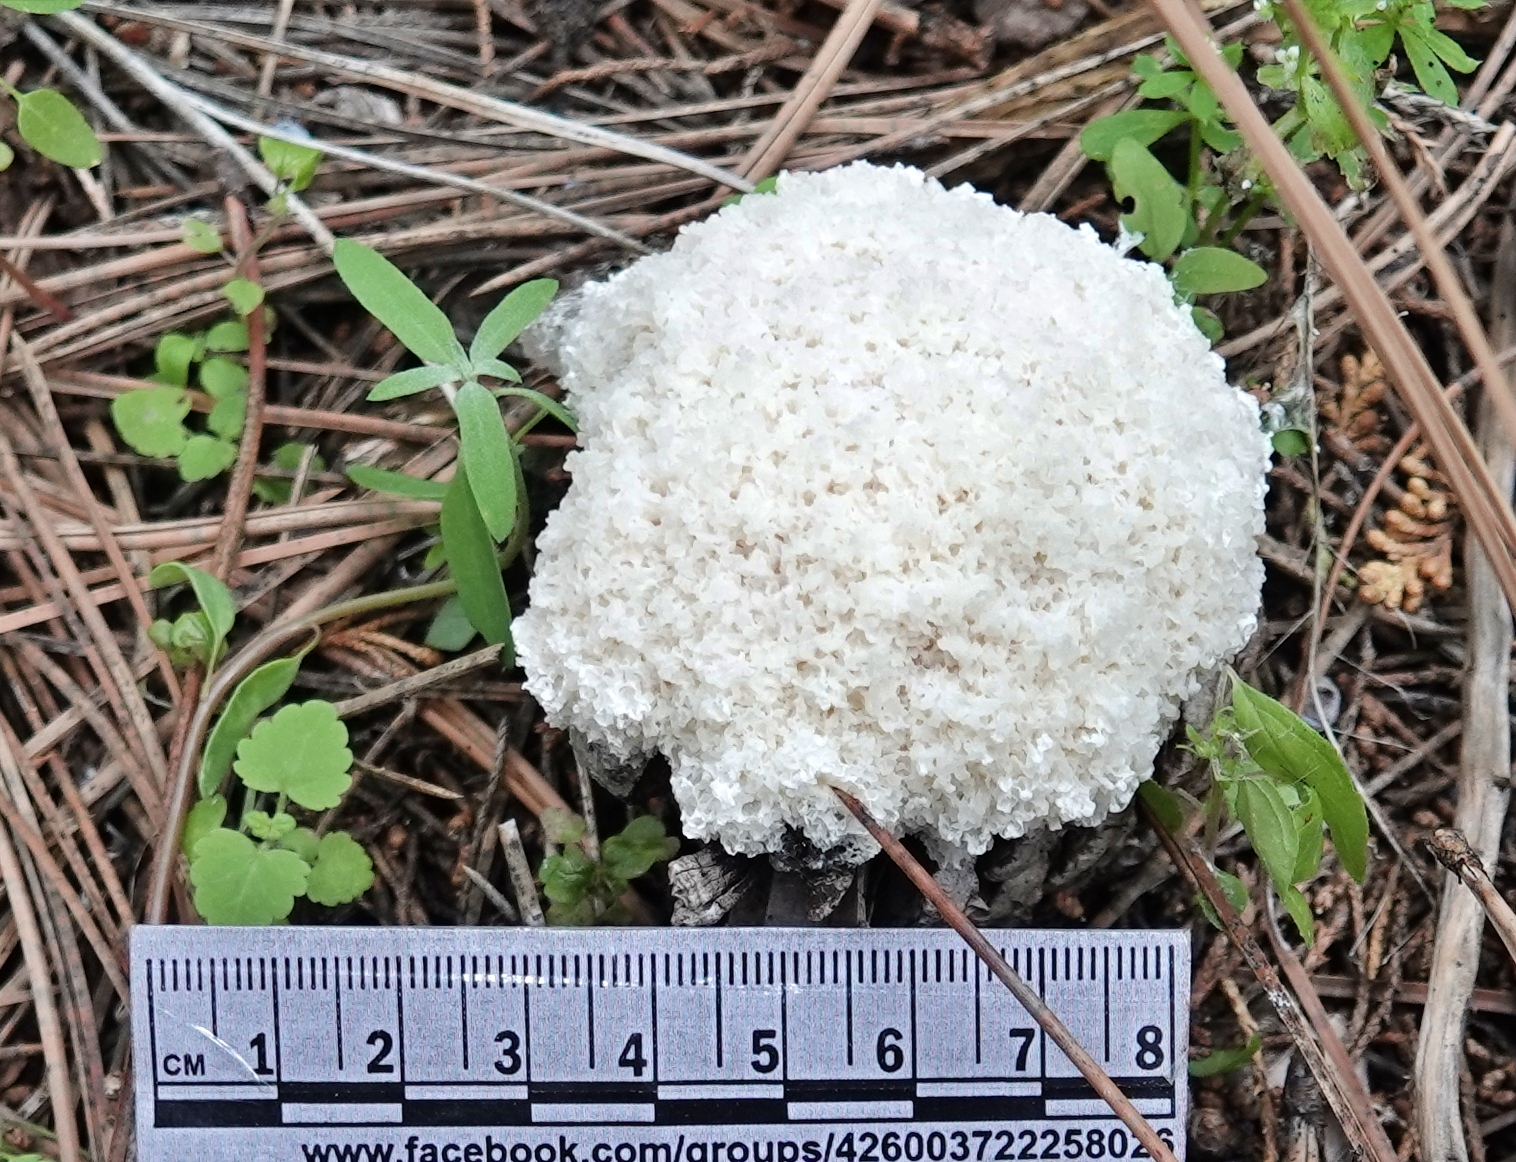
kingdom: Protozoa
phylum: Mycetozoa
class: Myxomycetes
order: Physarales
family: Physaraceae
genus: Didymium
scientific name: Didymium
